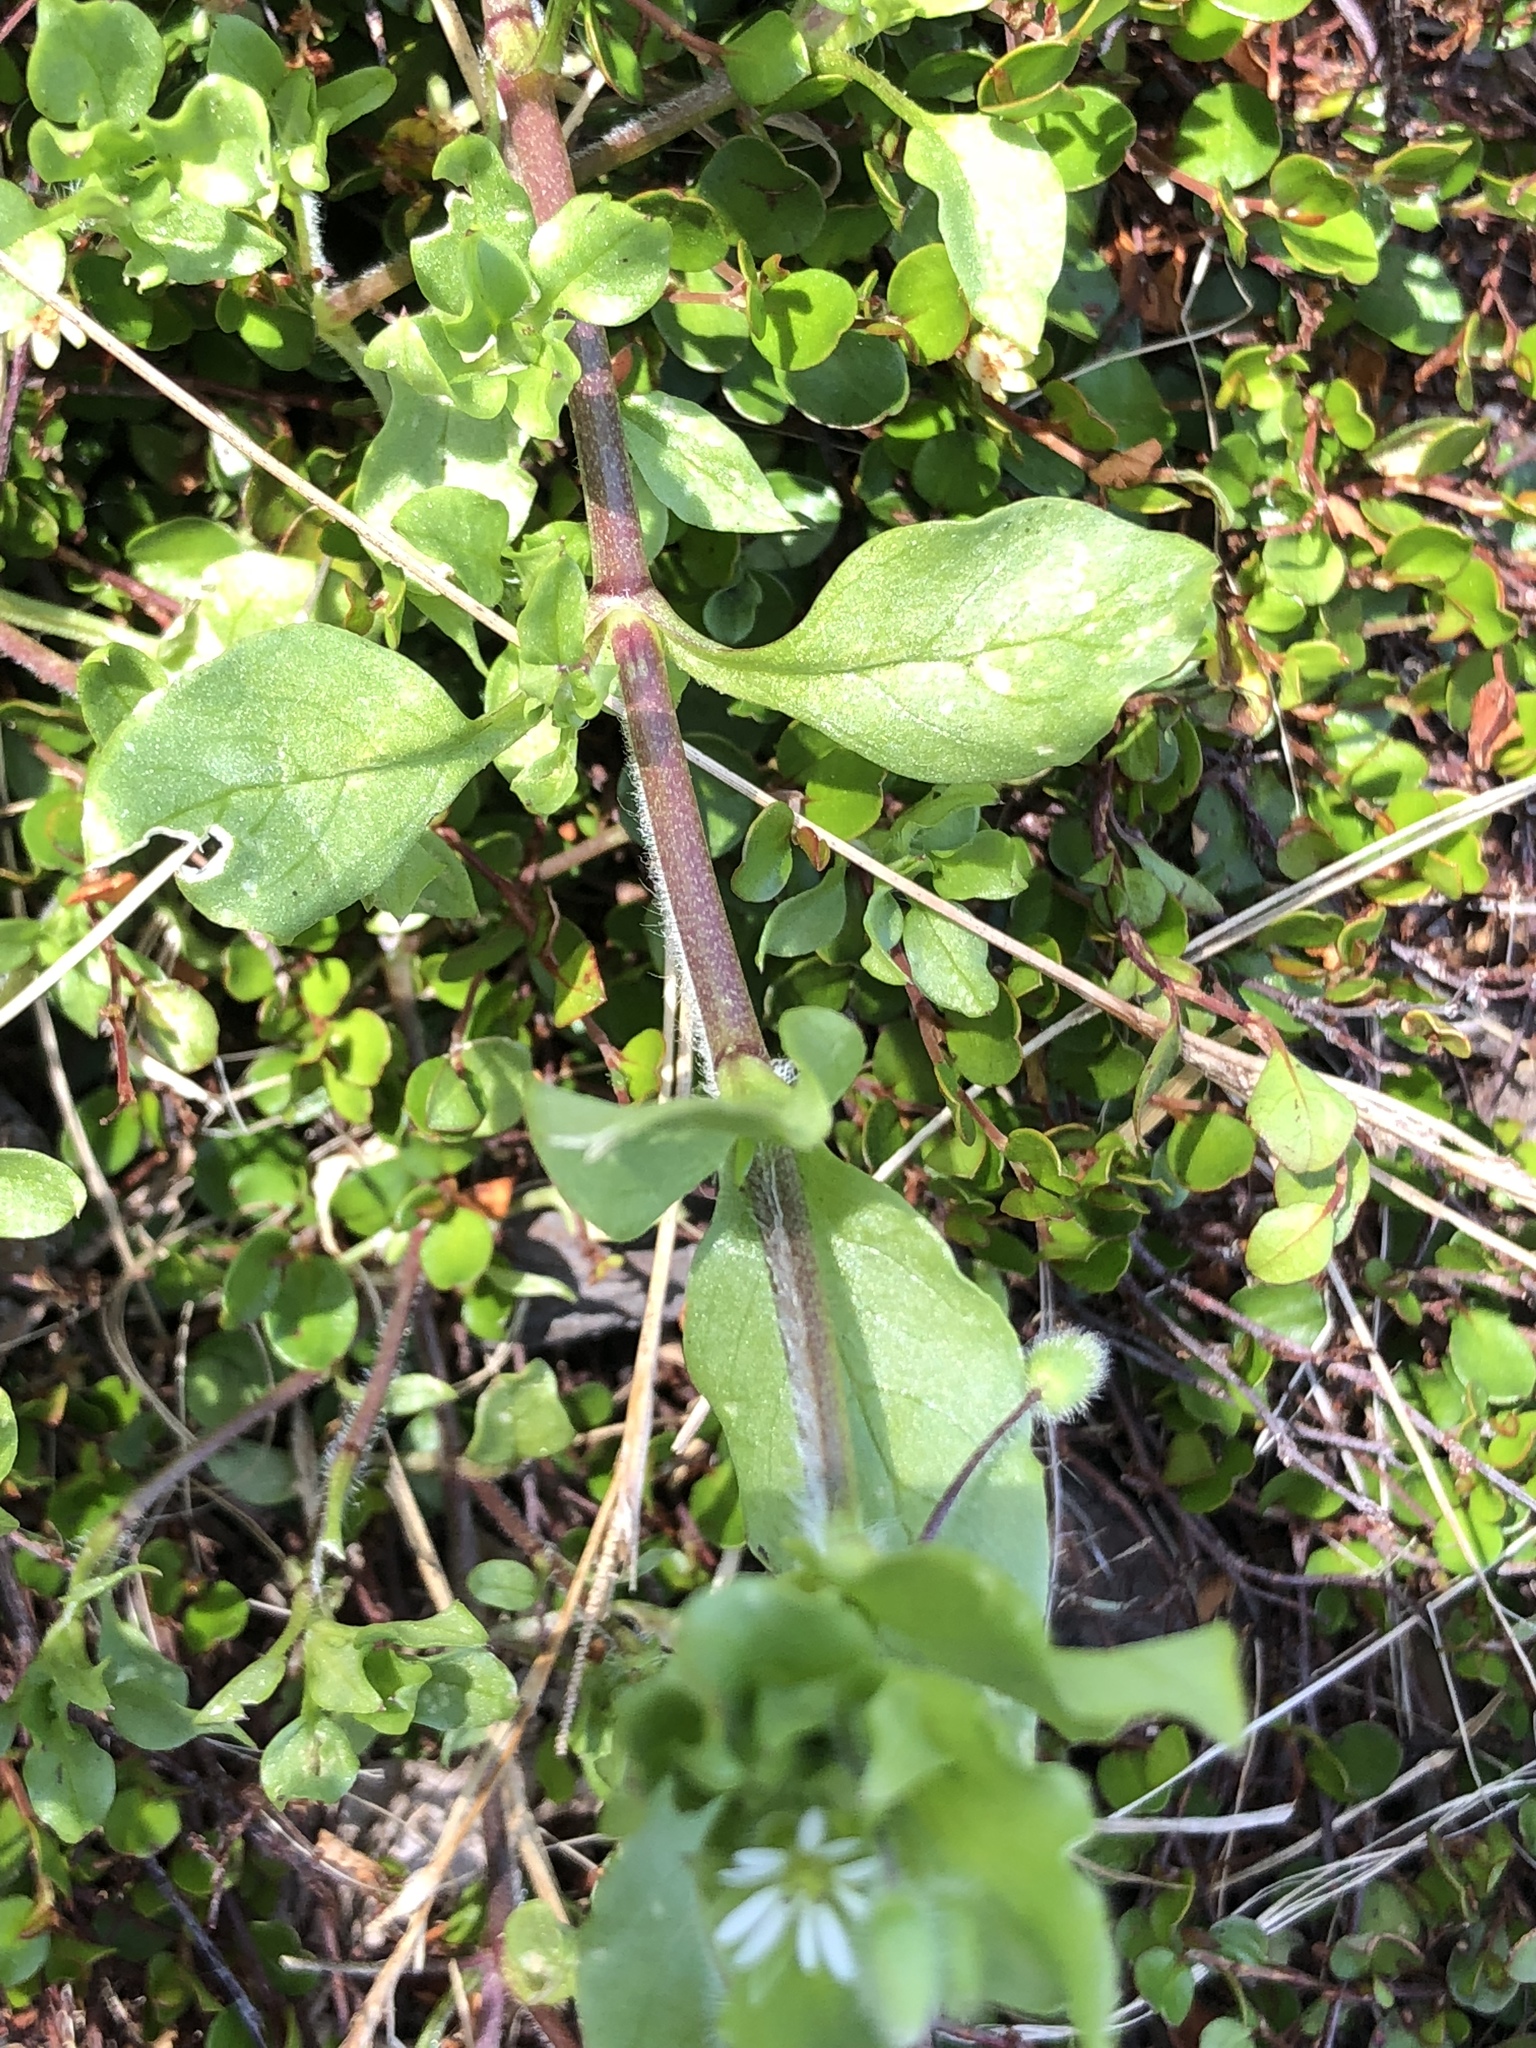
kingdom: Plantae
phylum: Tracheophyta
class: Magnoliopsida
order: Caryophyllales
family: Caryophyllaceae
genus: Stellaria
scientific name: Stellaria media
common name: Common chickweed
